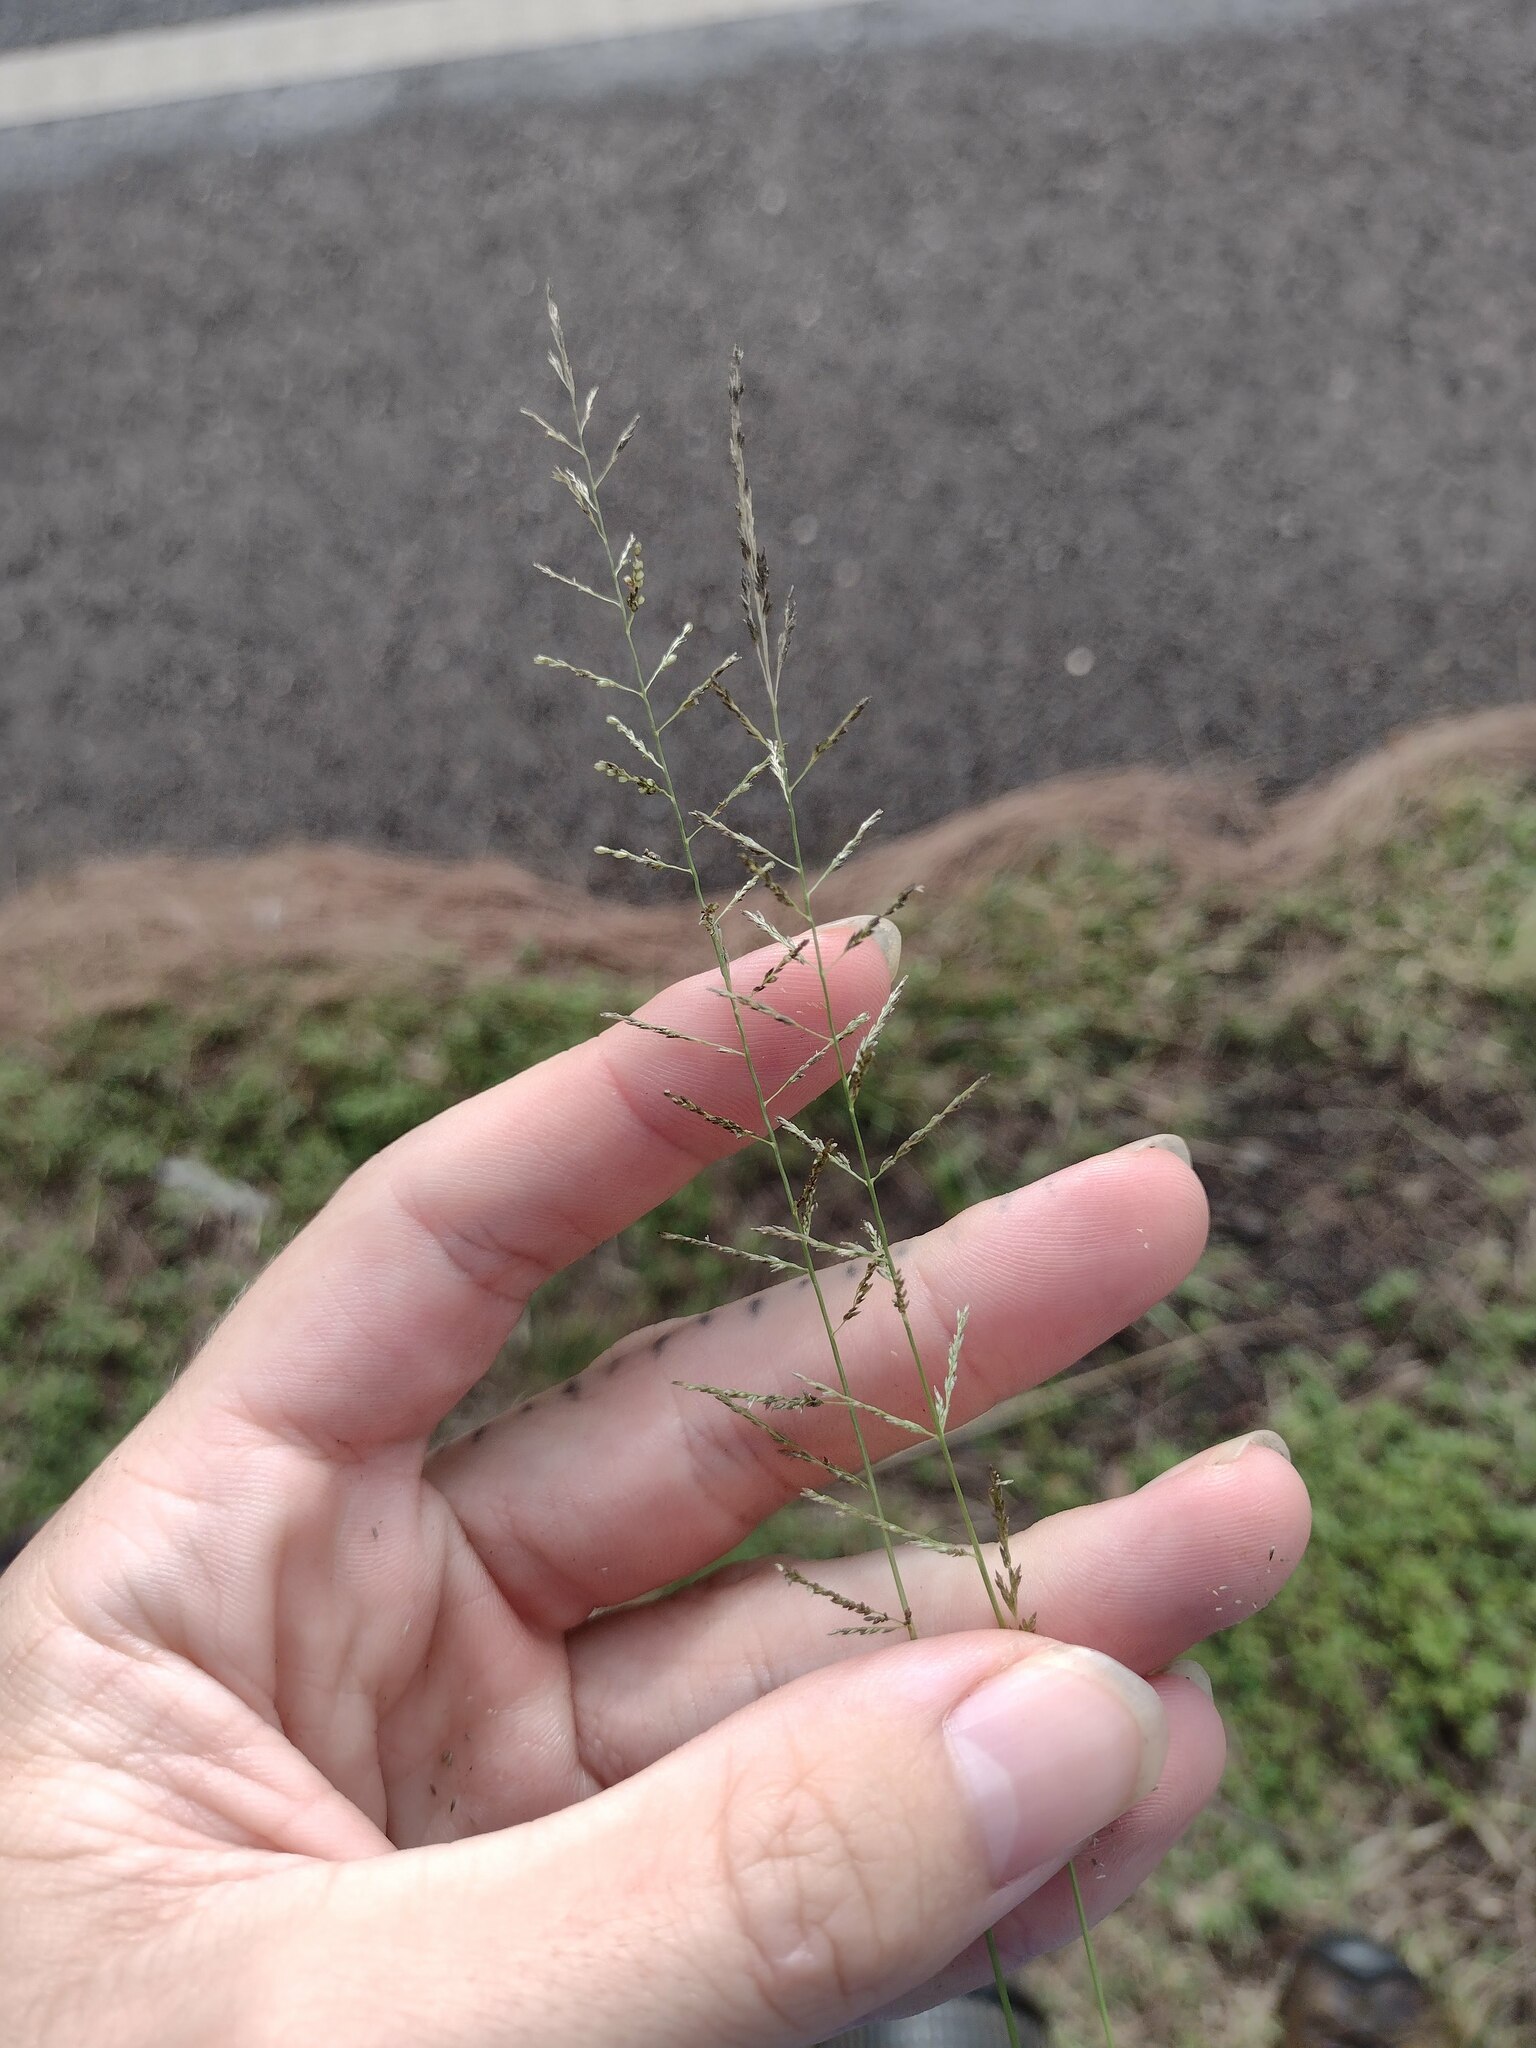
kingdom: Plantae
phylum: Tracheophyta
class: Liliopsida
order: Poales
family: Poaceae
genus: Sporobolus
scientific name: Sporobolus diandrus
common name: Tussock dropseed
